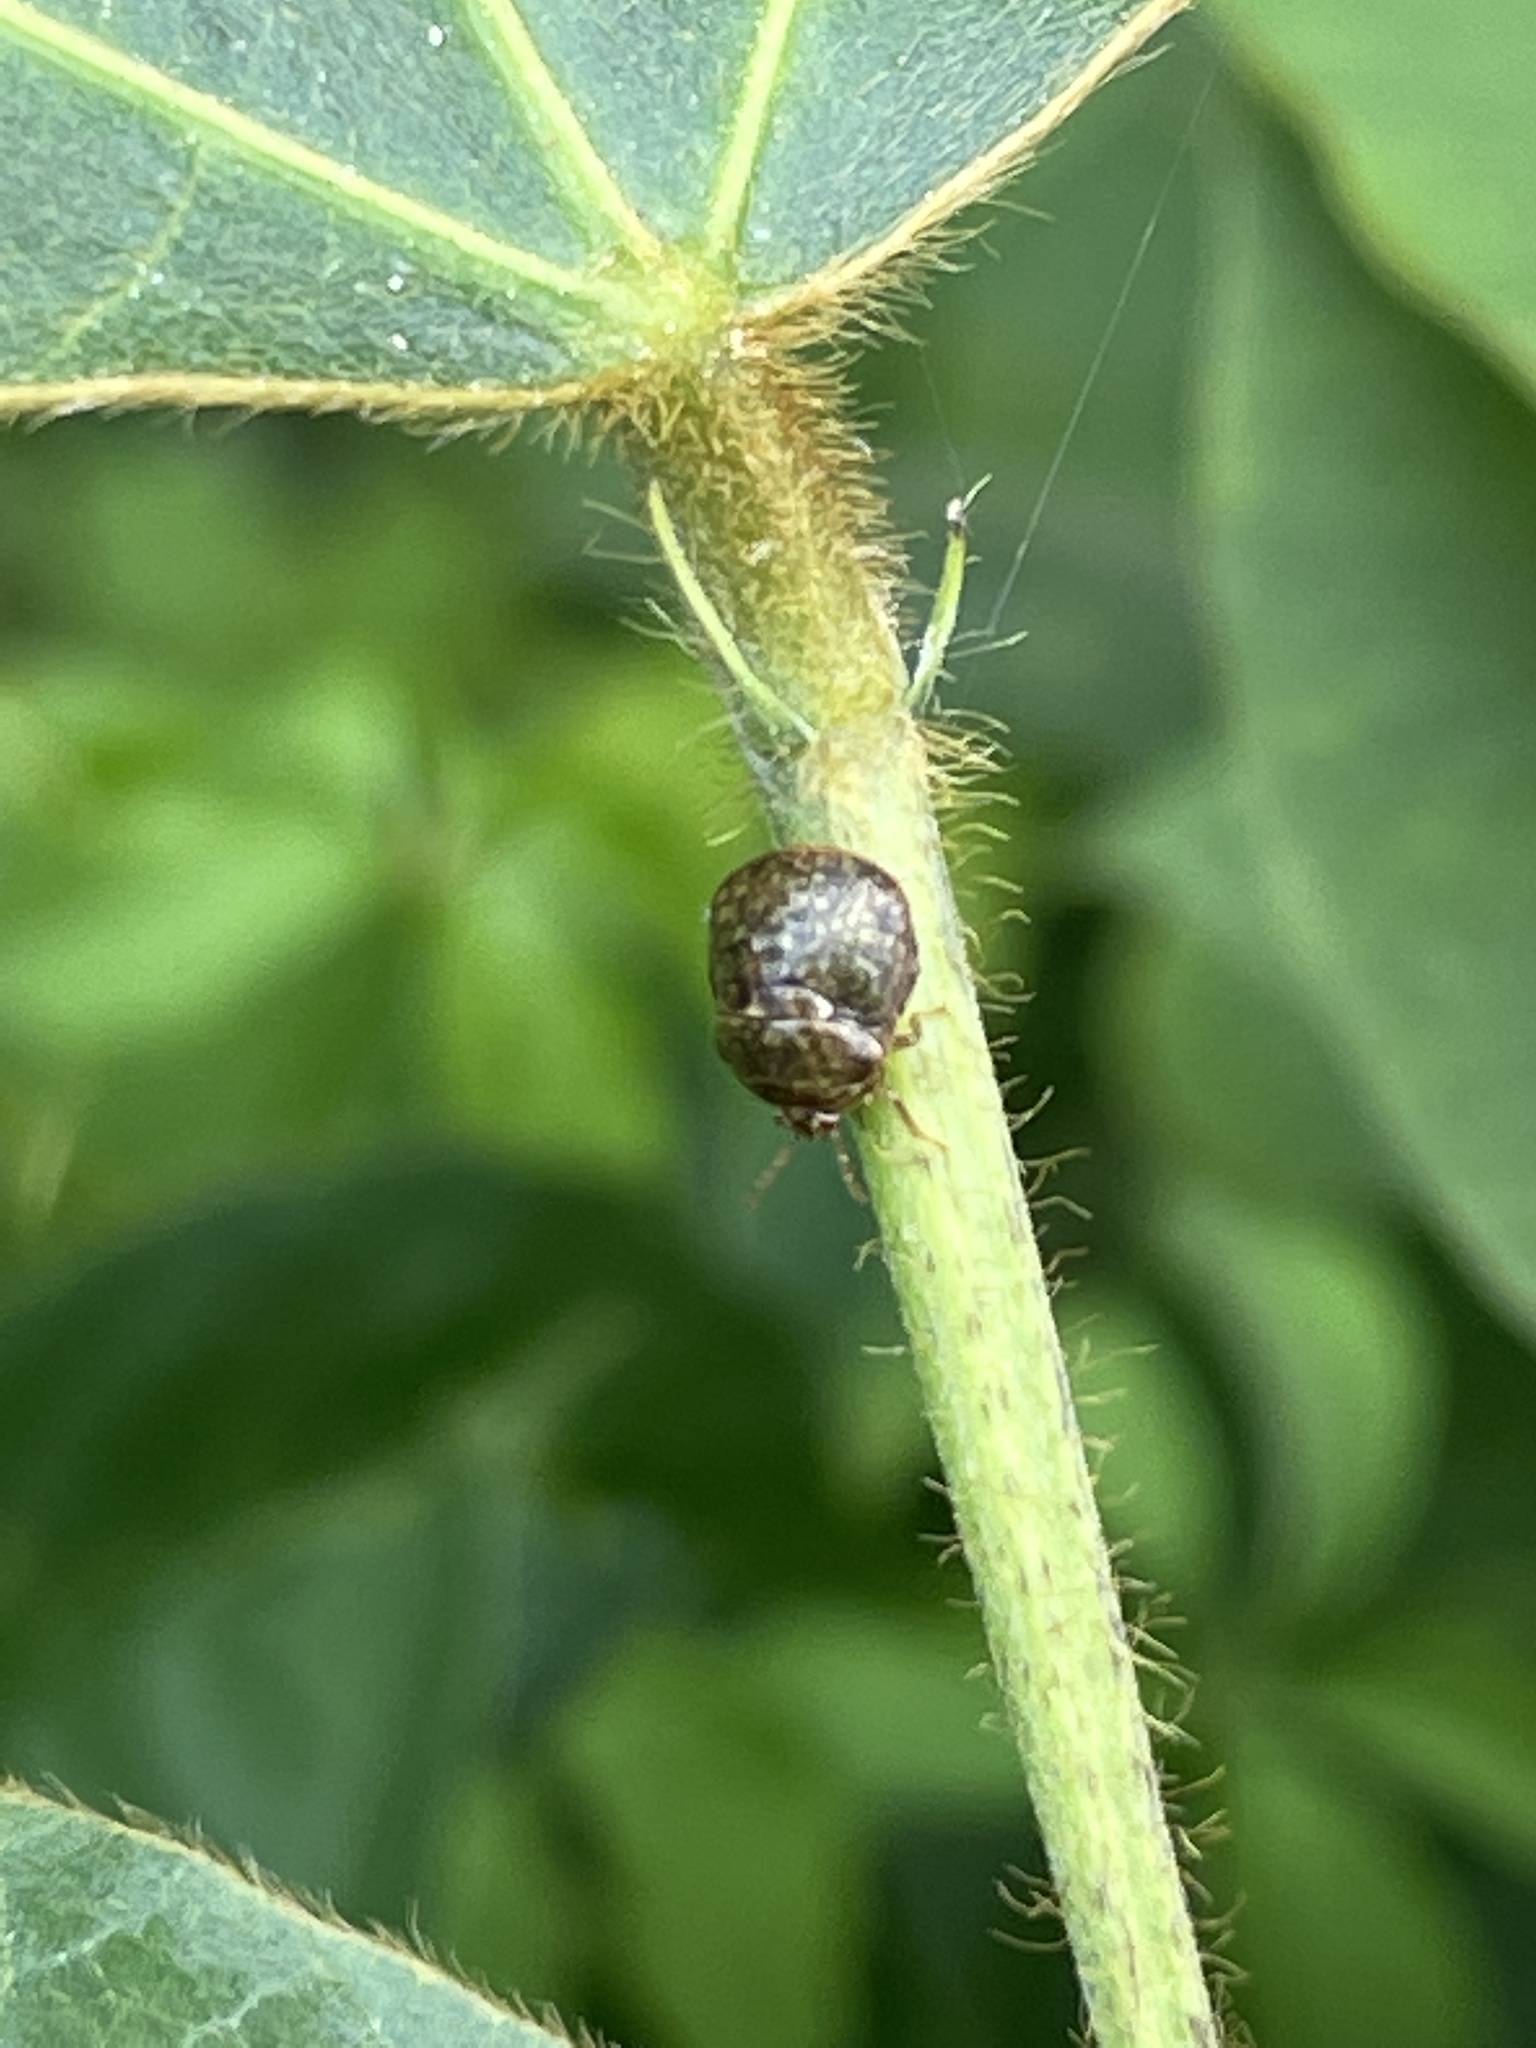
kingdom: Animalia
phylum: Arthropoda
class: Insecta
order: Hemiptera
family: Plataspidae
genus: Megacopta
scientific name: Megacopta cribraria
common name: Bean plataspid
